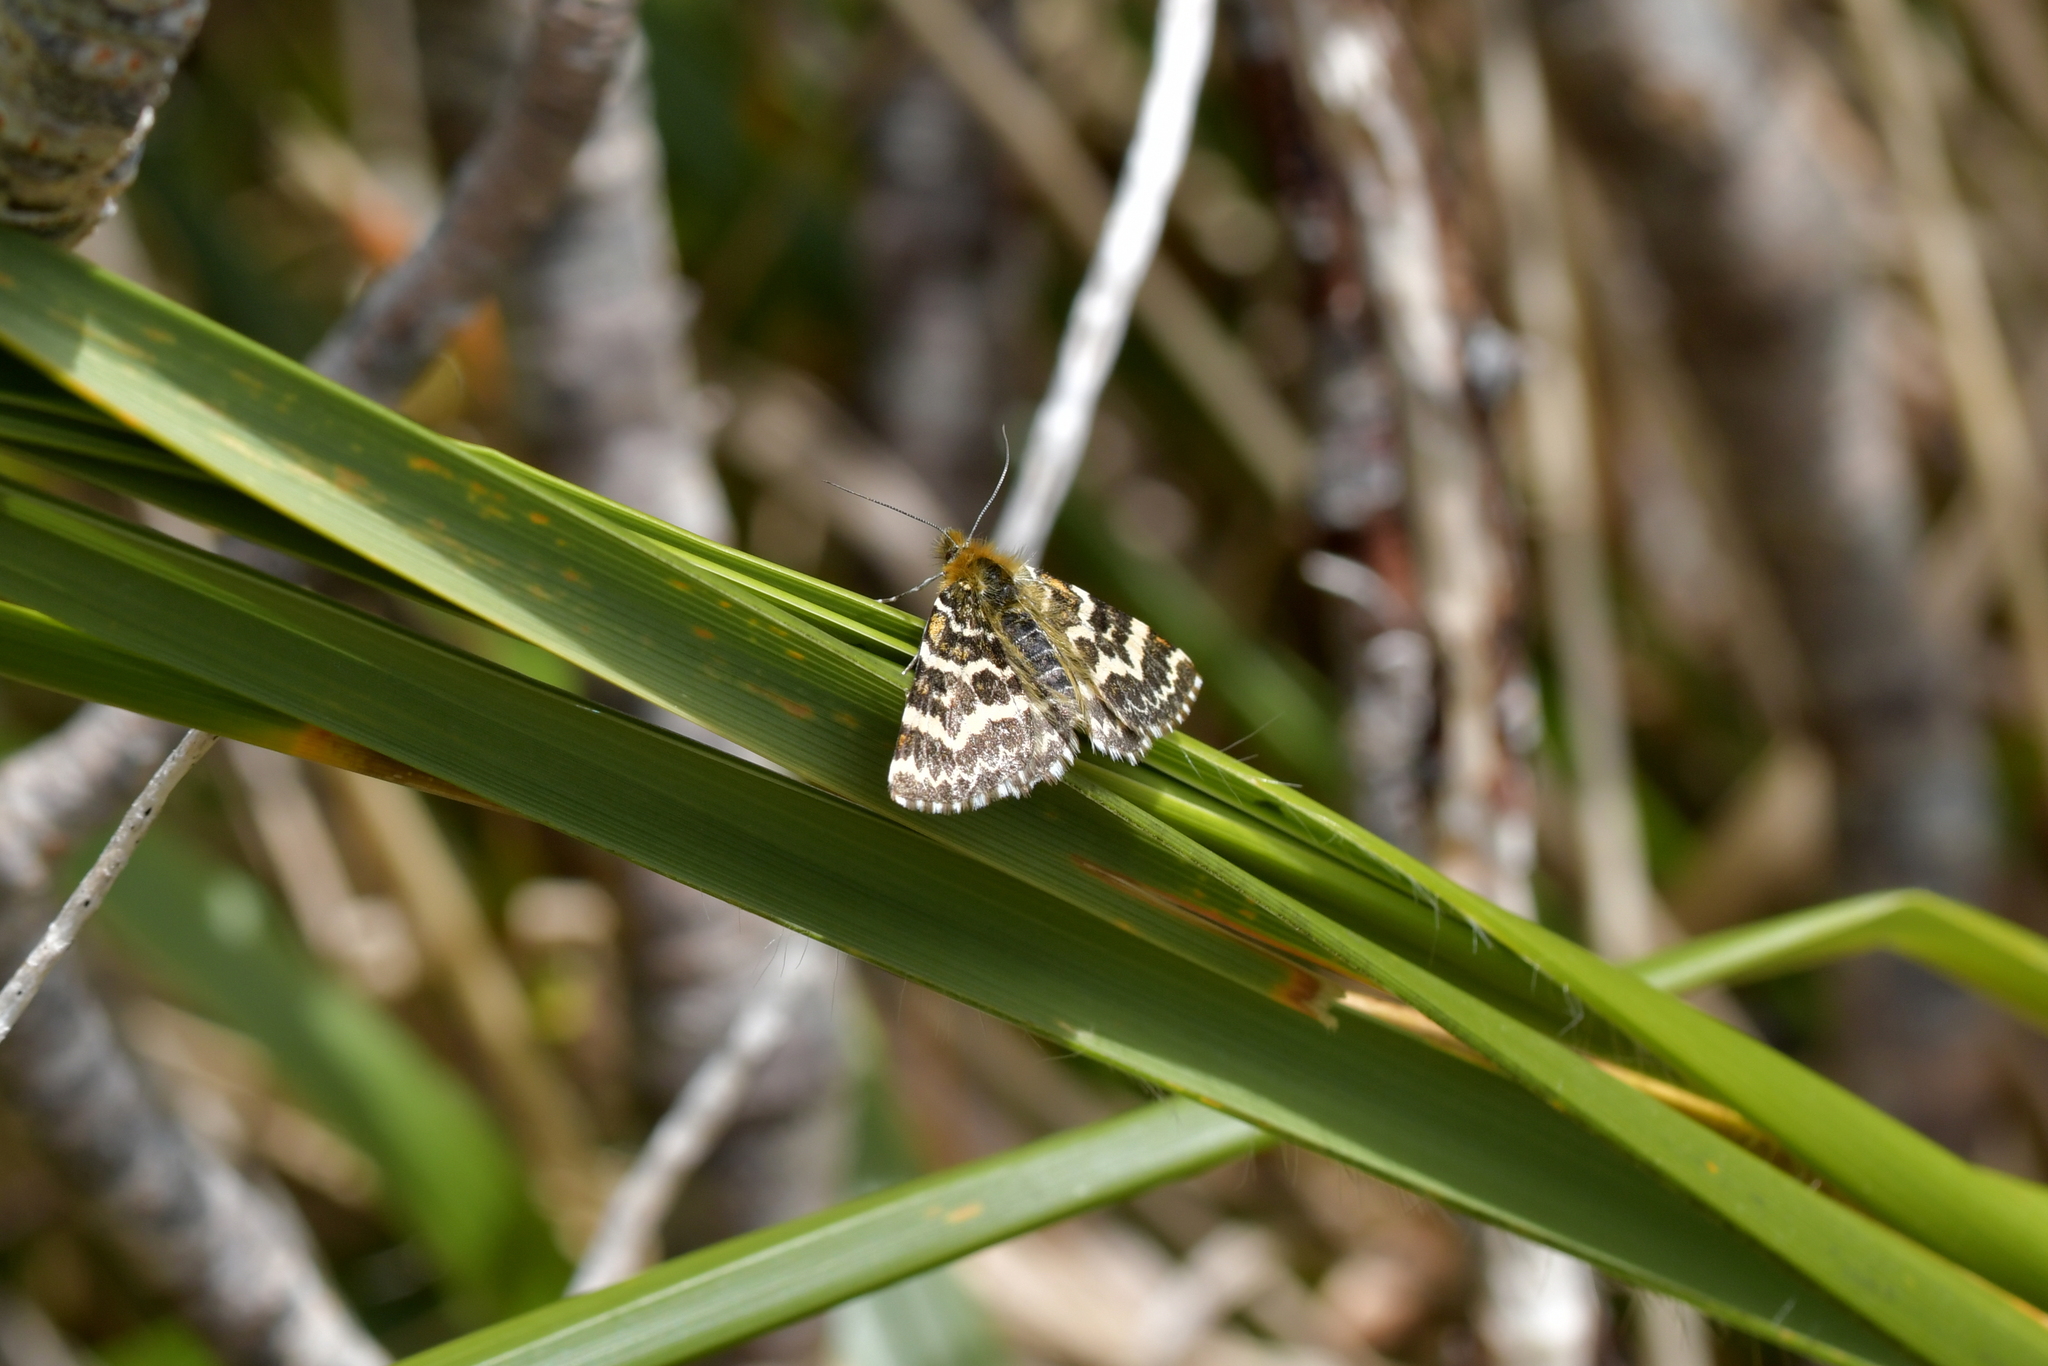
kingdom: Animalia
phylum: Arthropoda
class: Insecta
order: Lepidoptera
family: Geometridae
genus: Dasyuris
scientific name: Dasyuris callicrena
